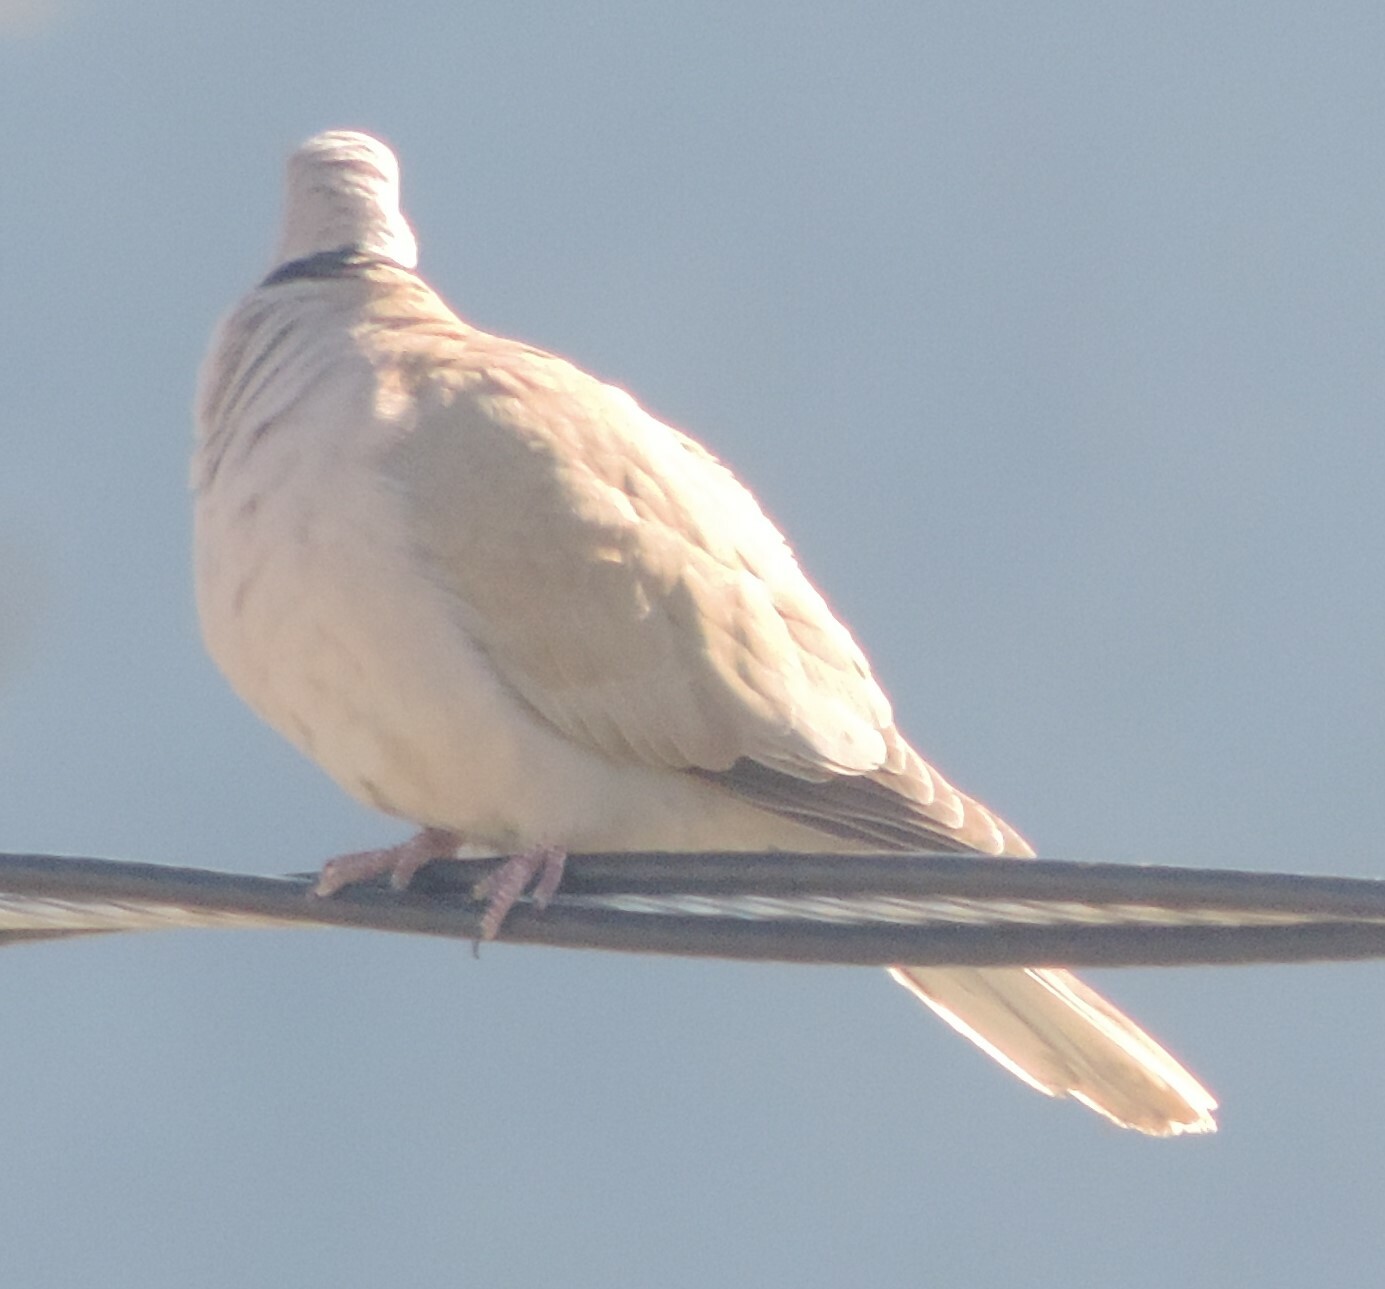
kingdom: Animalia
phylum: Chordata
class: Aves
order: Columbiformes
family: Columbidae
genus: Streptopelia
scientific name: Streptopelia
